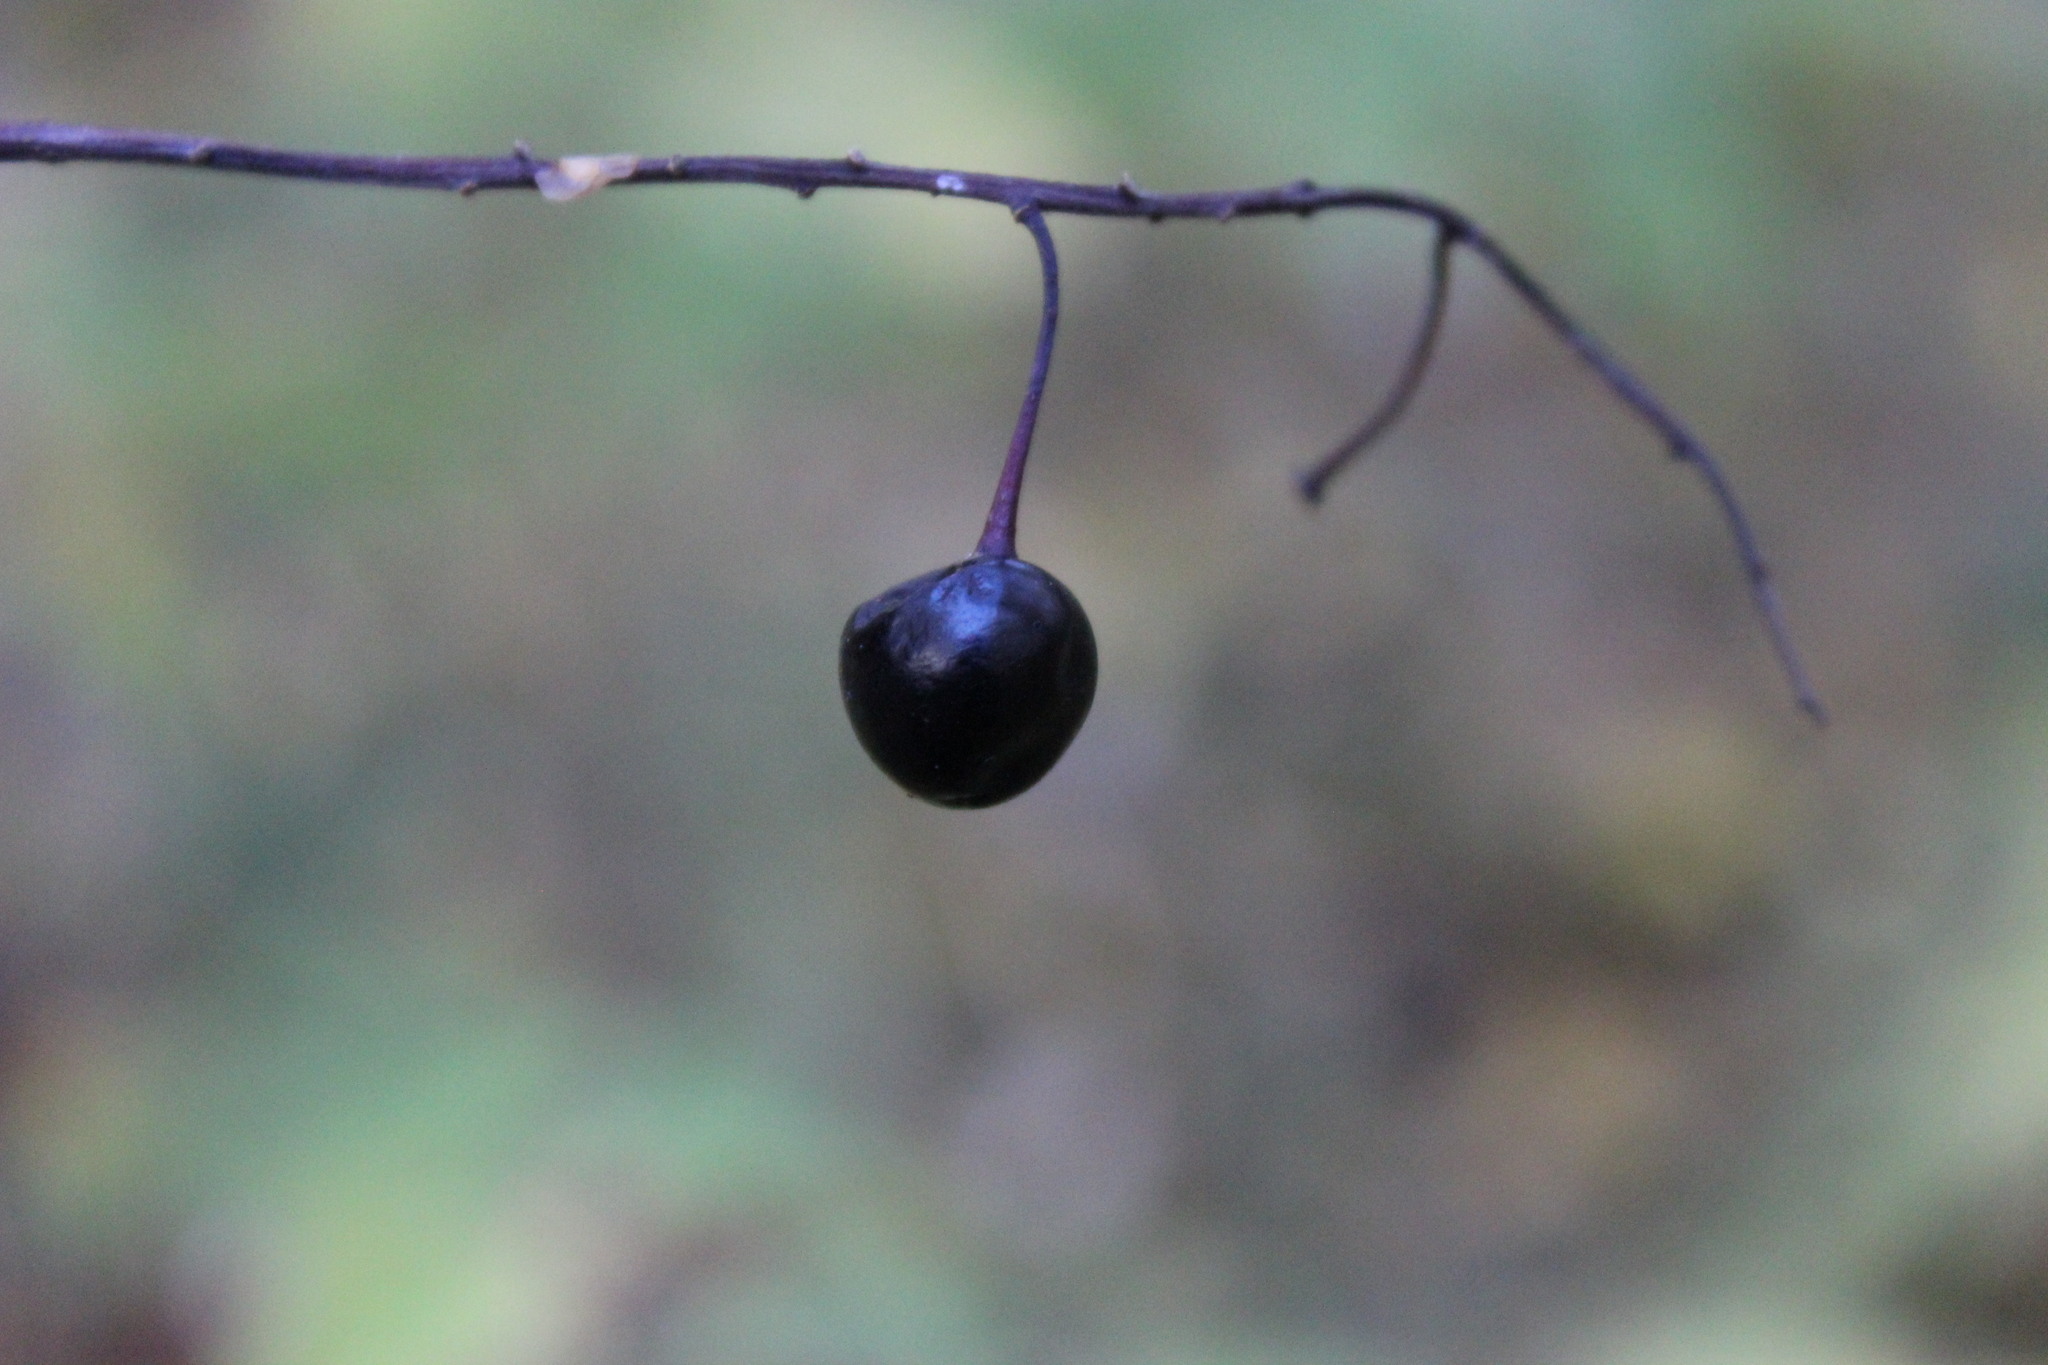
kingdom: Plantae
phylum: Tracheophyta
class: Magnoliopsida
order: Rosales
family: Rosaceae
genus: Prunus
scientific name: Prunus padus
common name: Bird cherry
